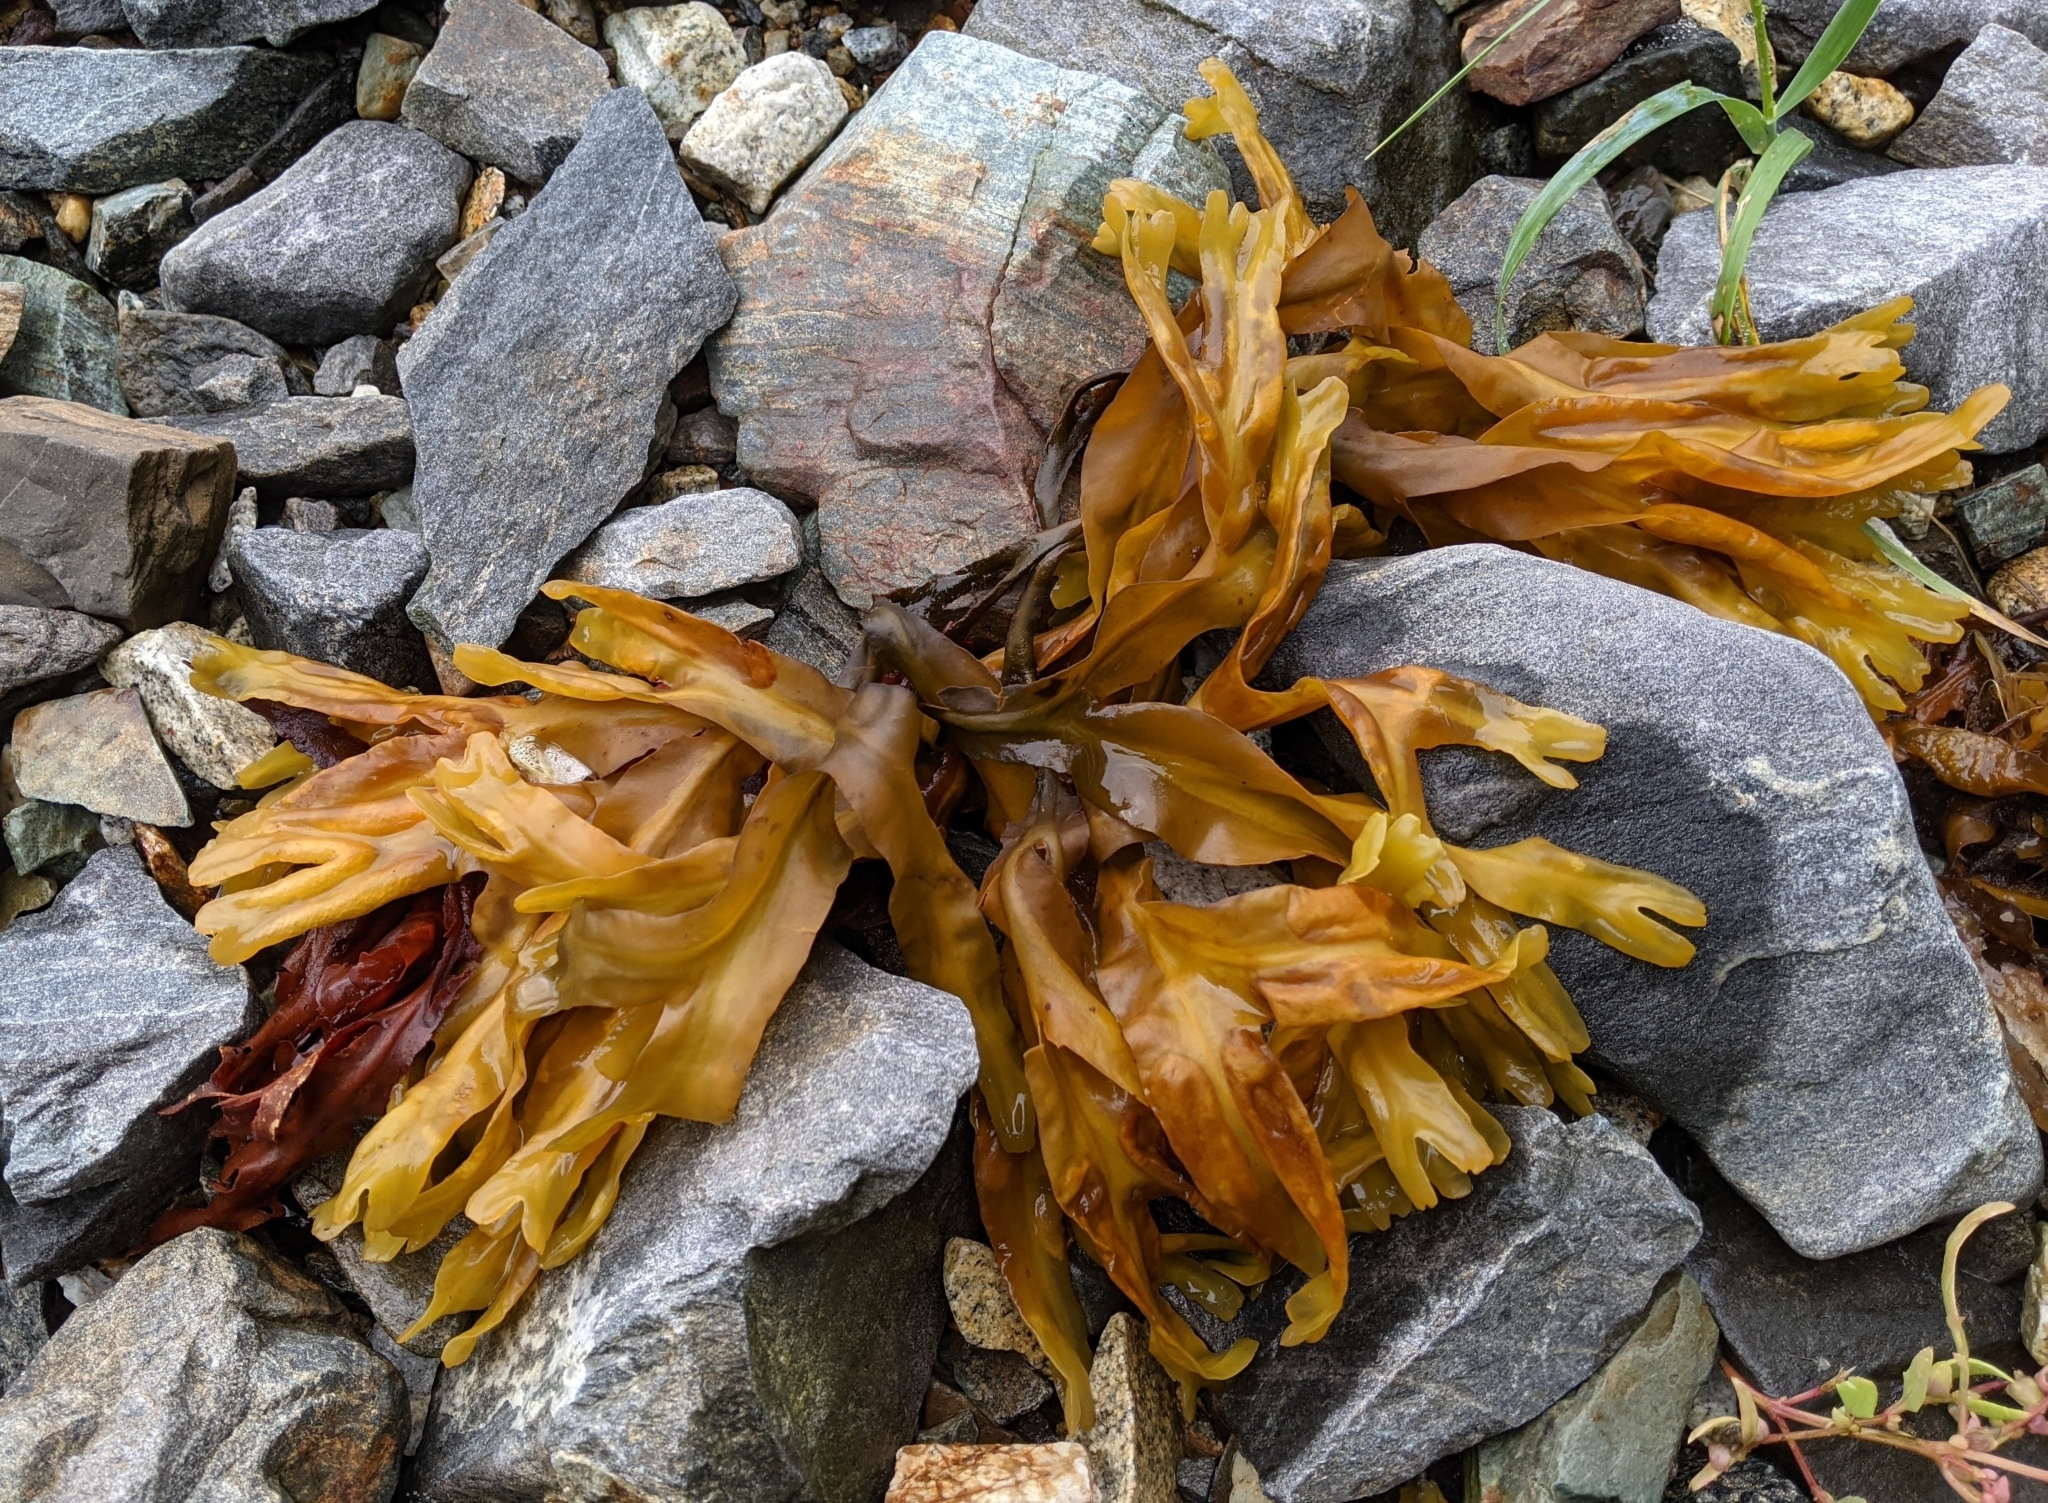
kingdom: Chromista
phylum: Ochrophyta
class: Phaeophyceae
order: Fucales
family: Fucaceae
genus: Fucus
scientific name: Fucus distichus
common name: Rockweed
